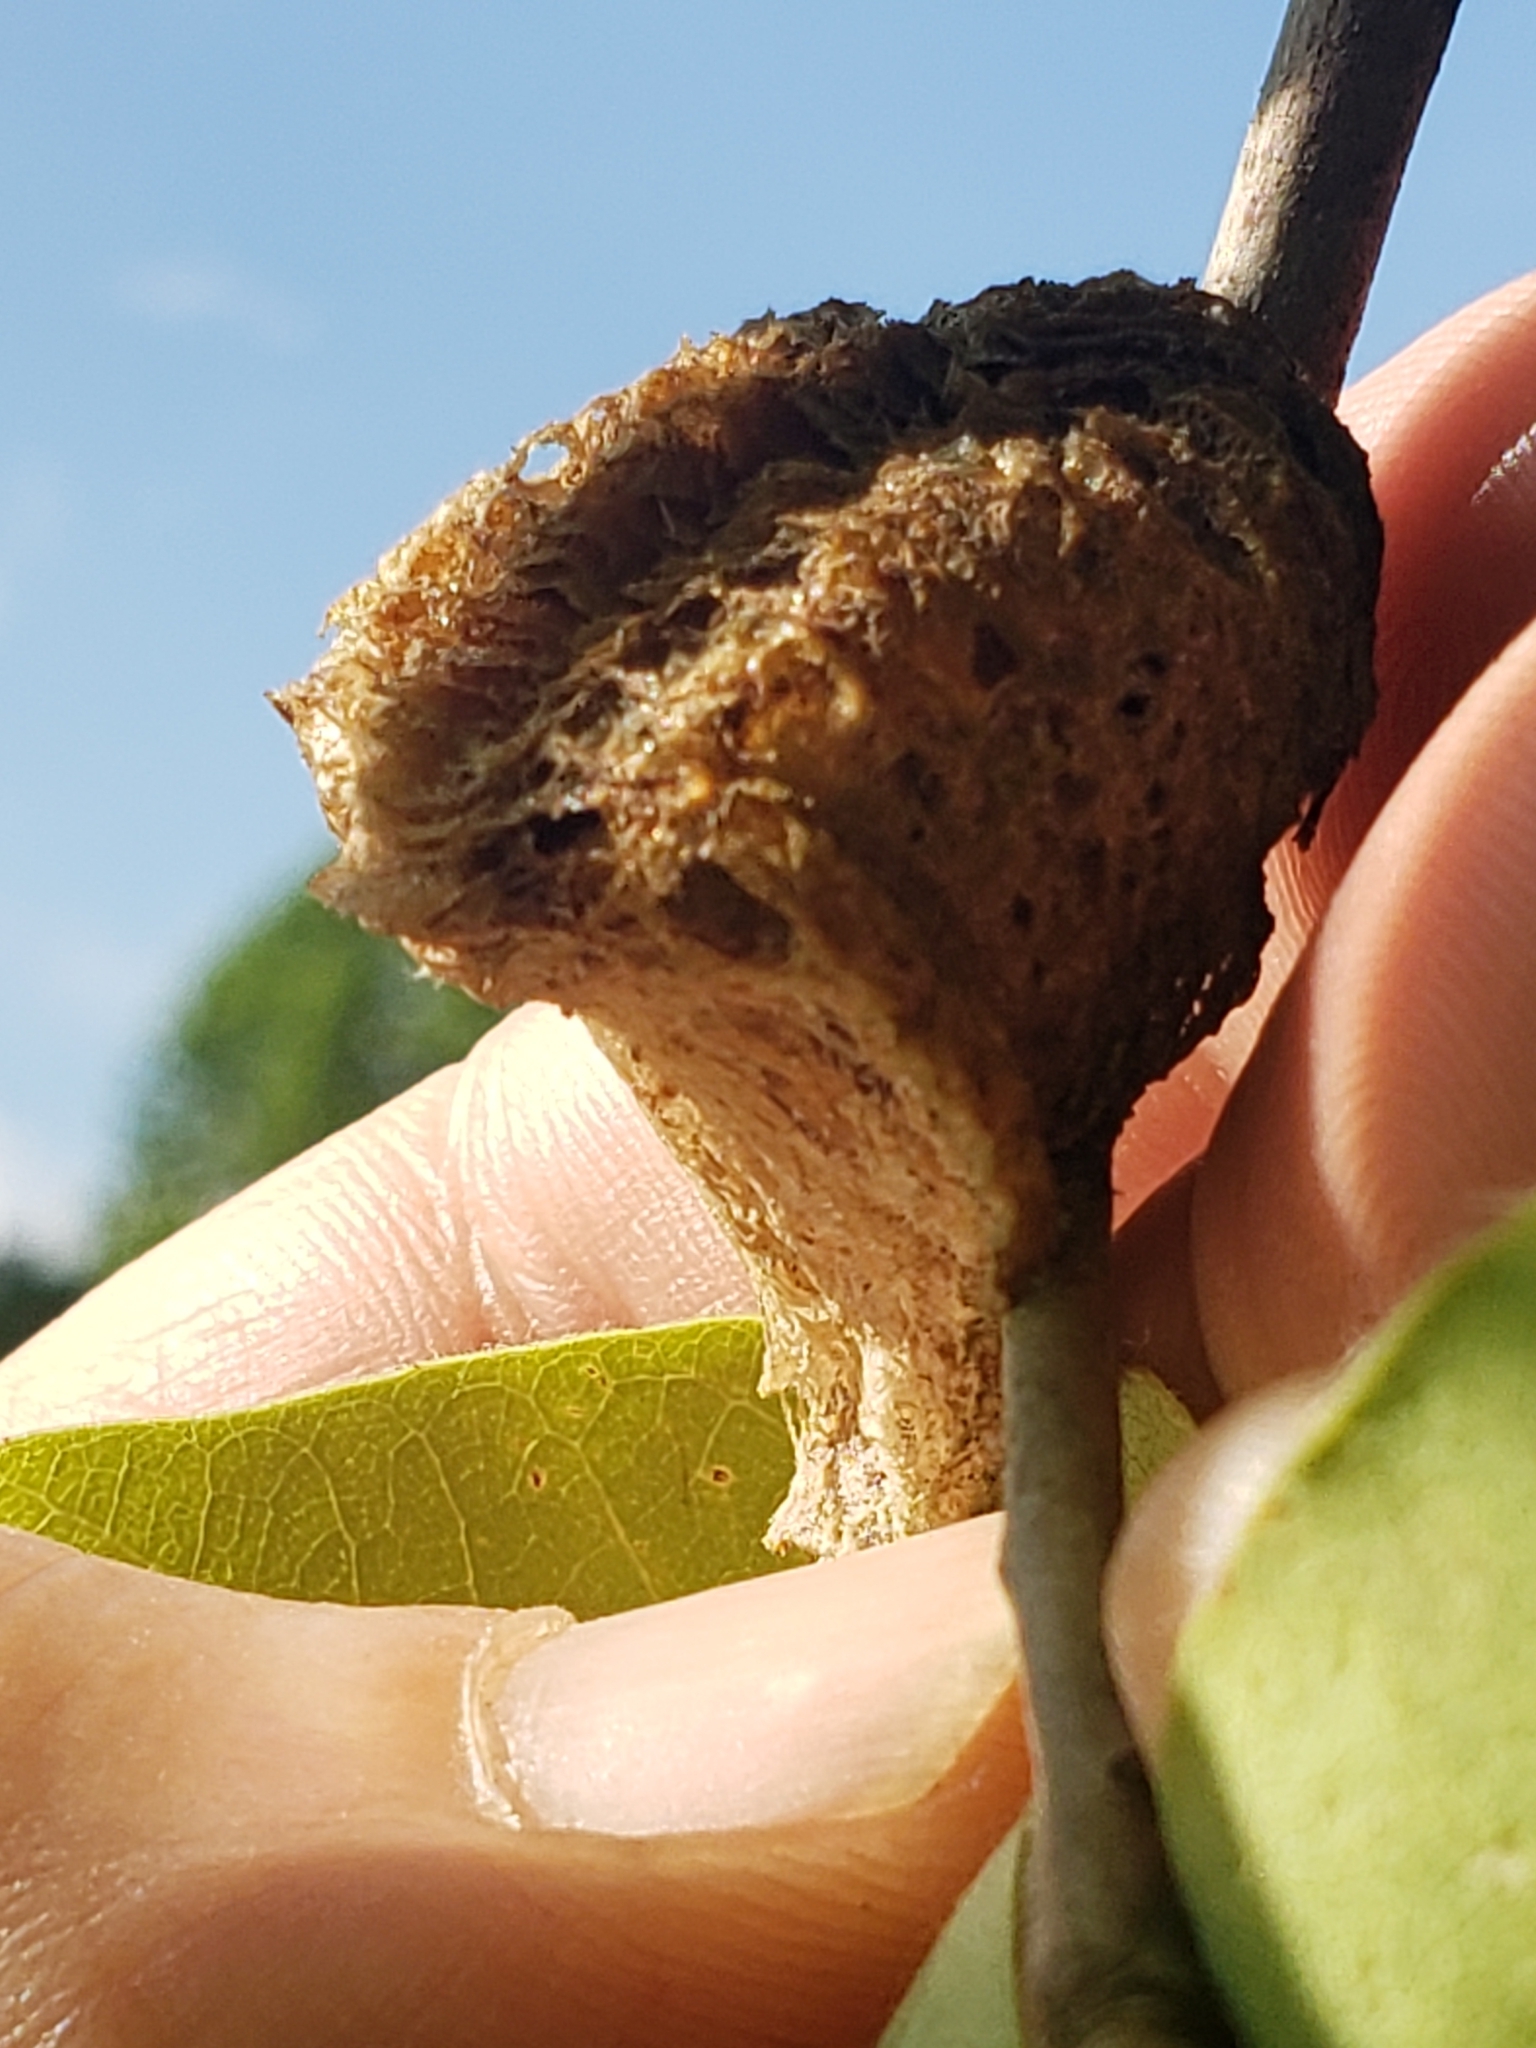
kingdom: Animalia
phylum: Arthropoda
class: Insecta
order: Mantodea
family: Mantidae
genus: Tenodera
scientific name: Tenodera sinensis
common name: Chinese mantis
